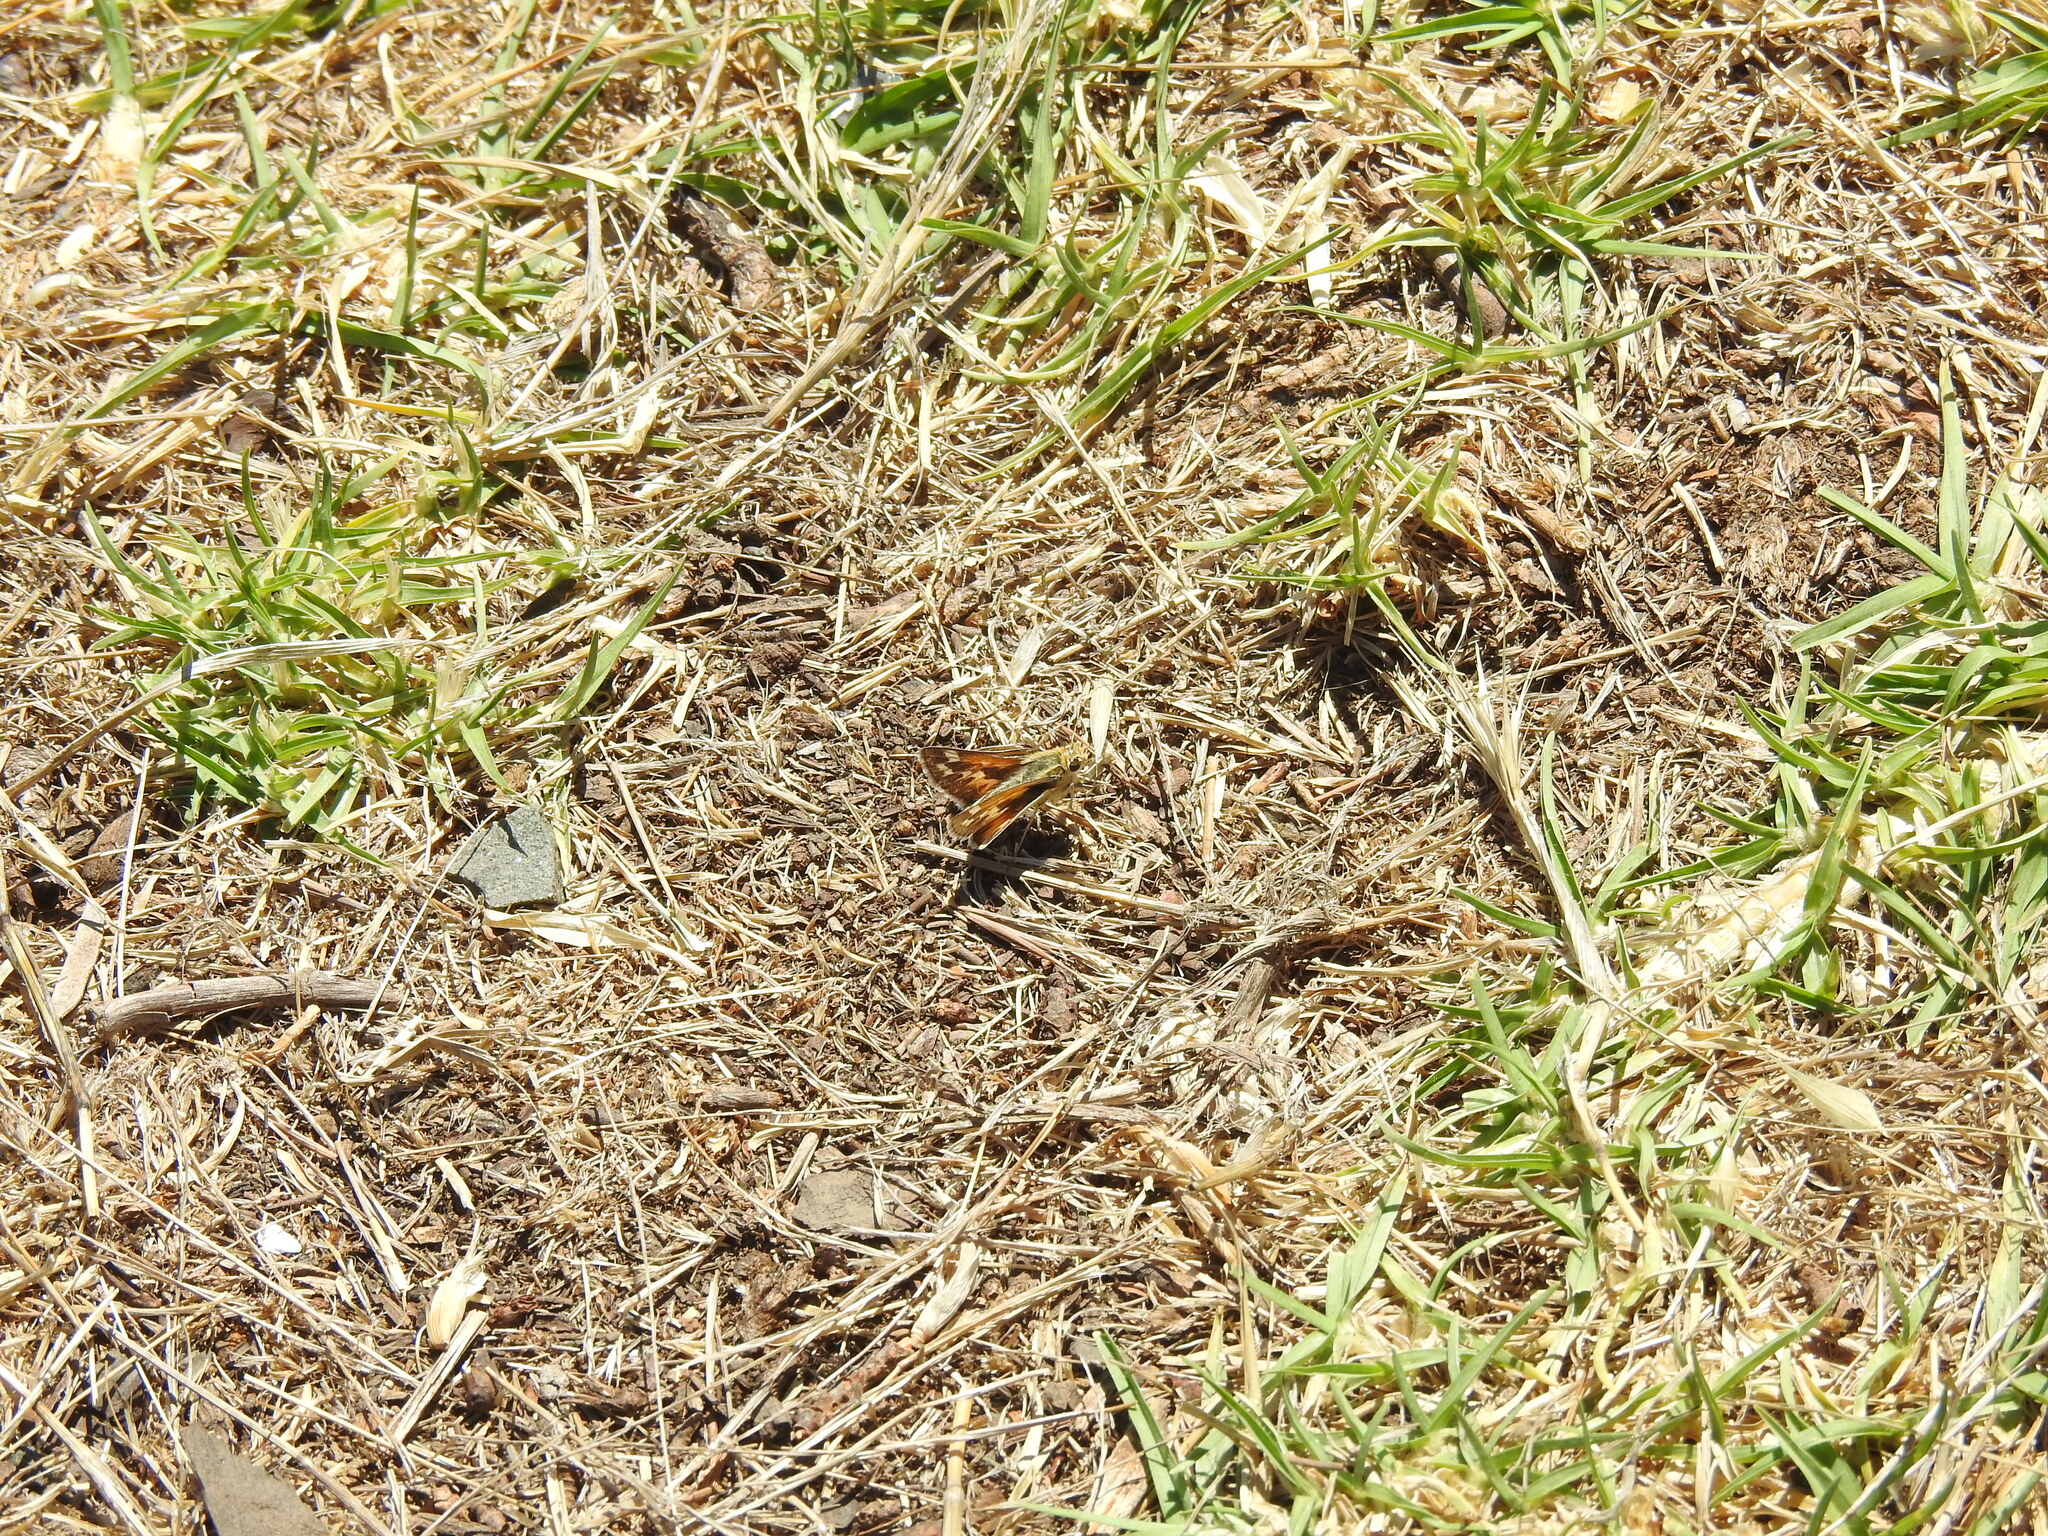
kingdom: Animalia
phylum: Arthropoda
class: Insecta
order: Lepidoptera
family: Hesperiidae
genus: Polites
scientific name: Polites sabuleti
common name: Sandhill skipper
